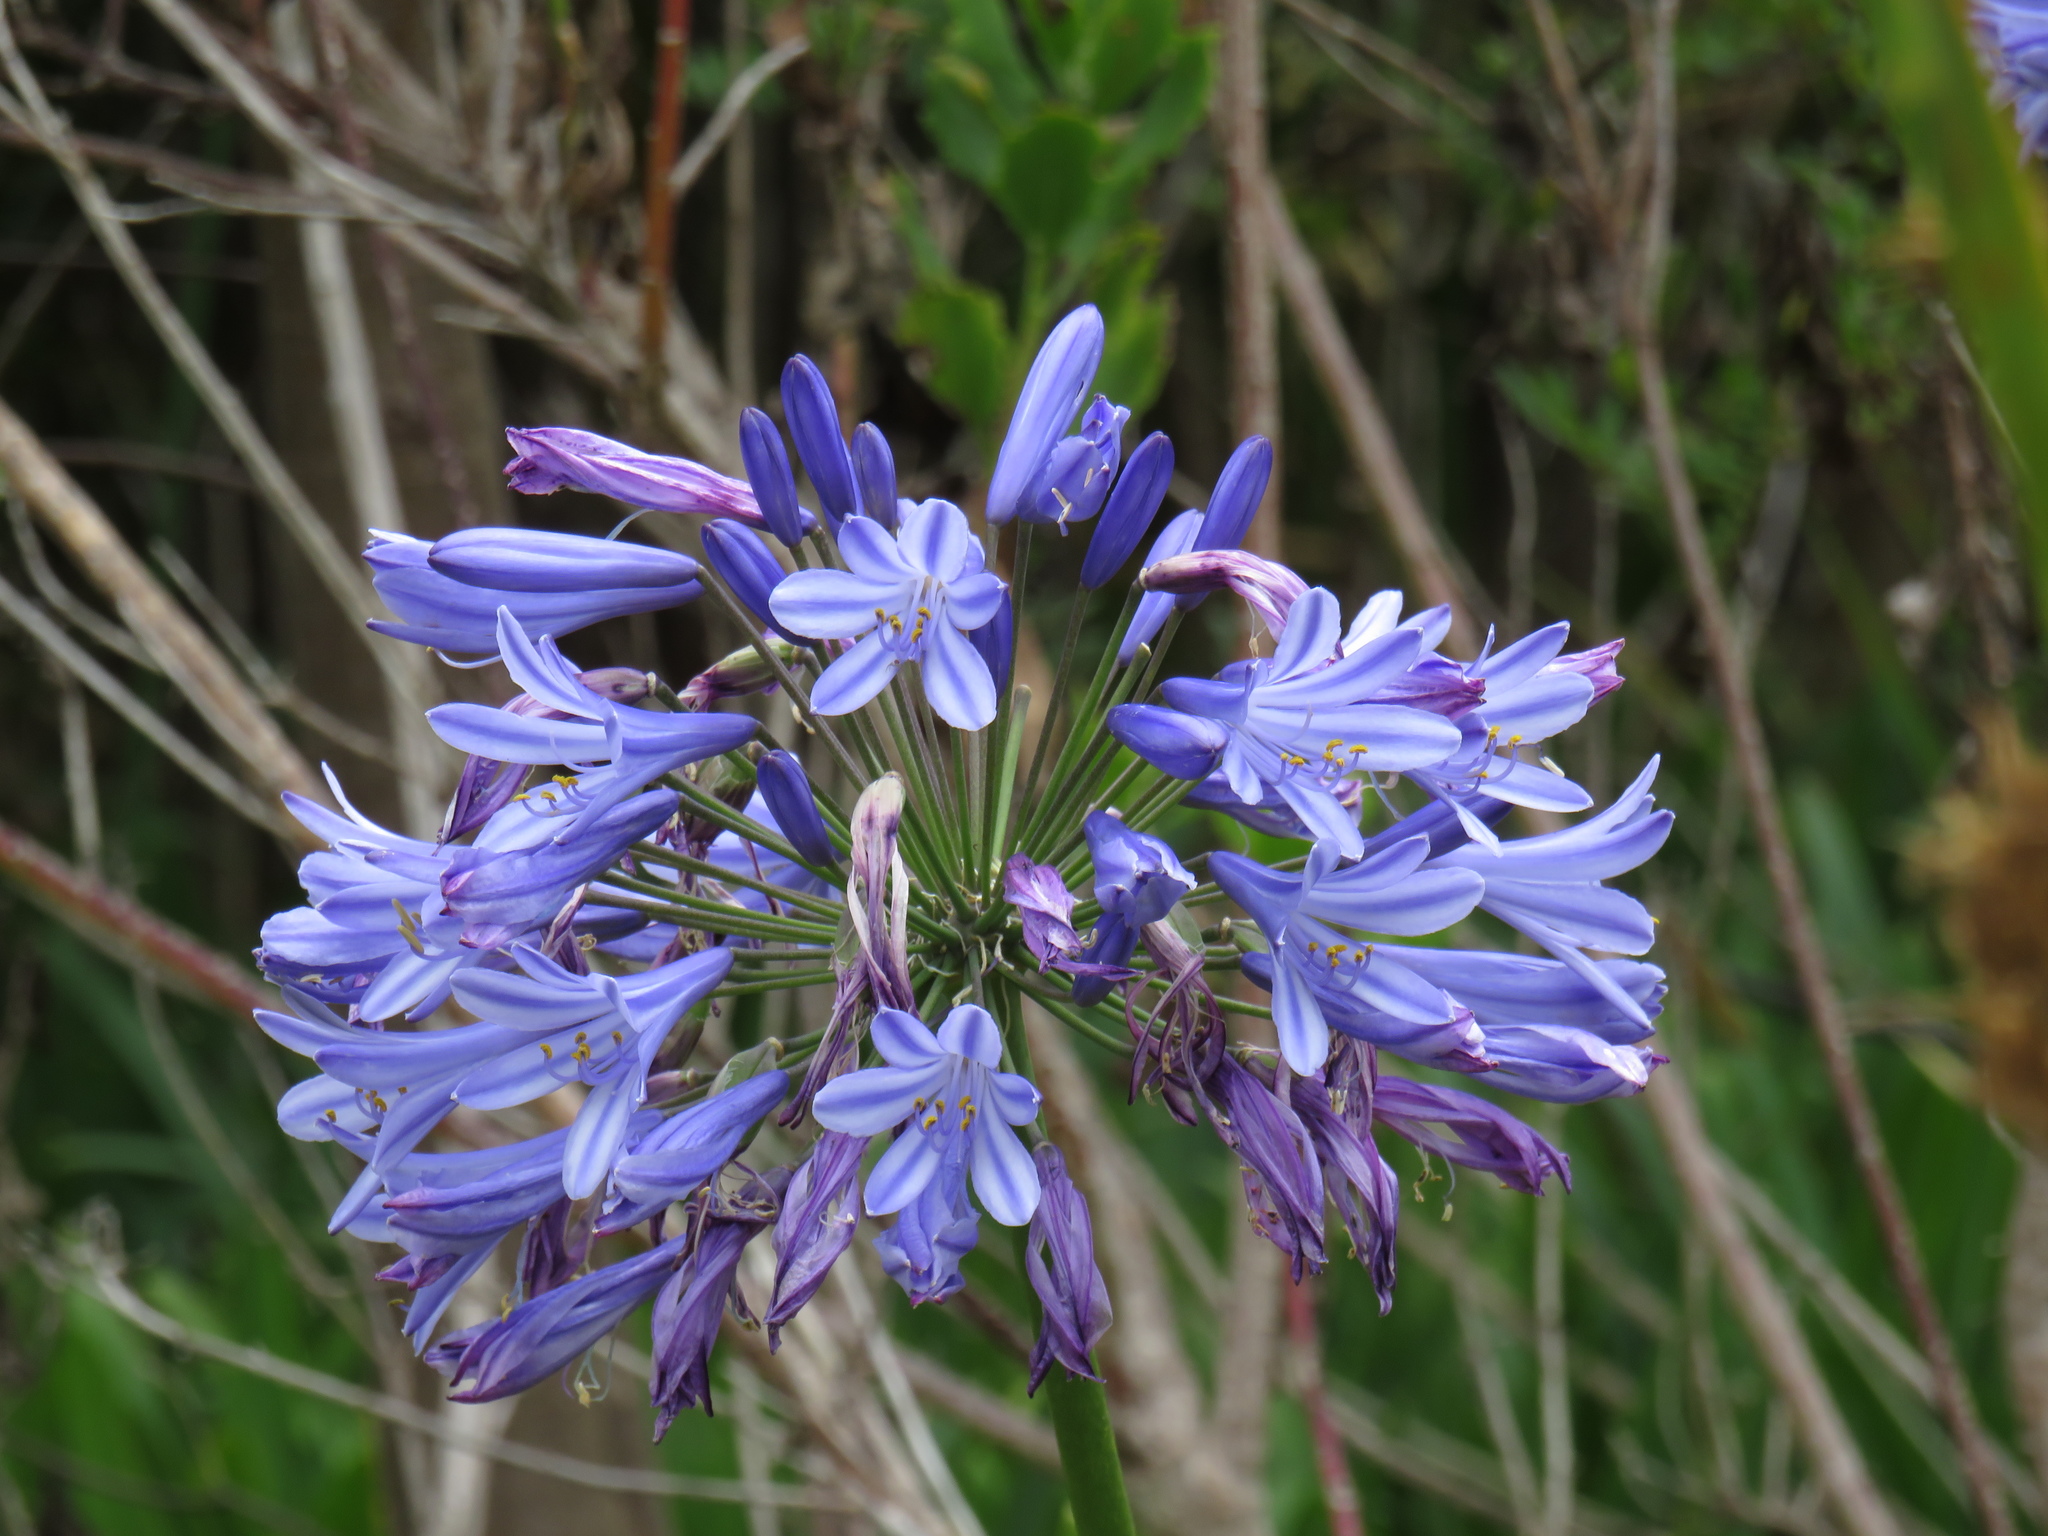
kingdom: Plantae
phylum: Tracheophyta
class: Liliopsida
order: Asparagales
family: Amaryllidaceae
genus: Agapanthus
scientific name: Agapanthus praecox
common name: African-lily
